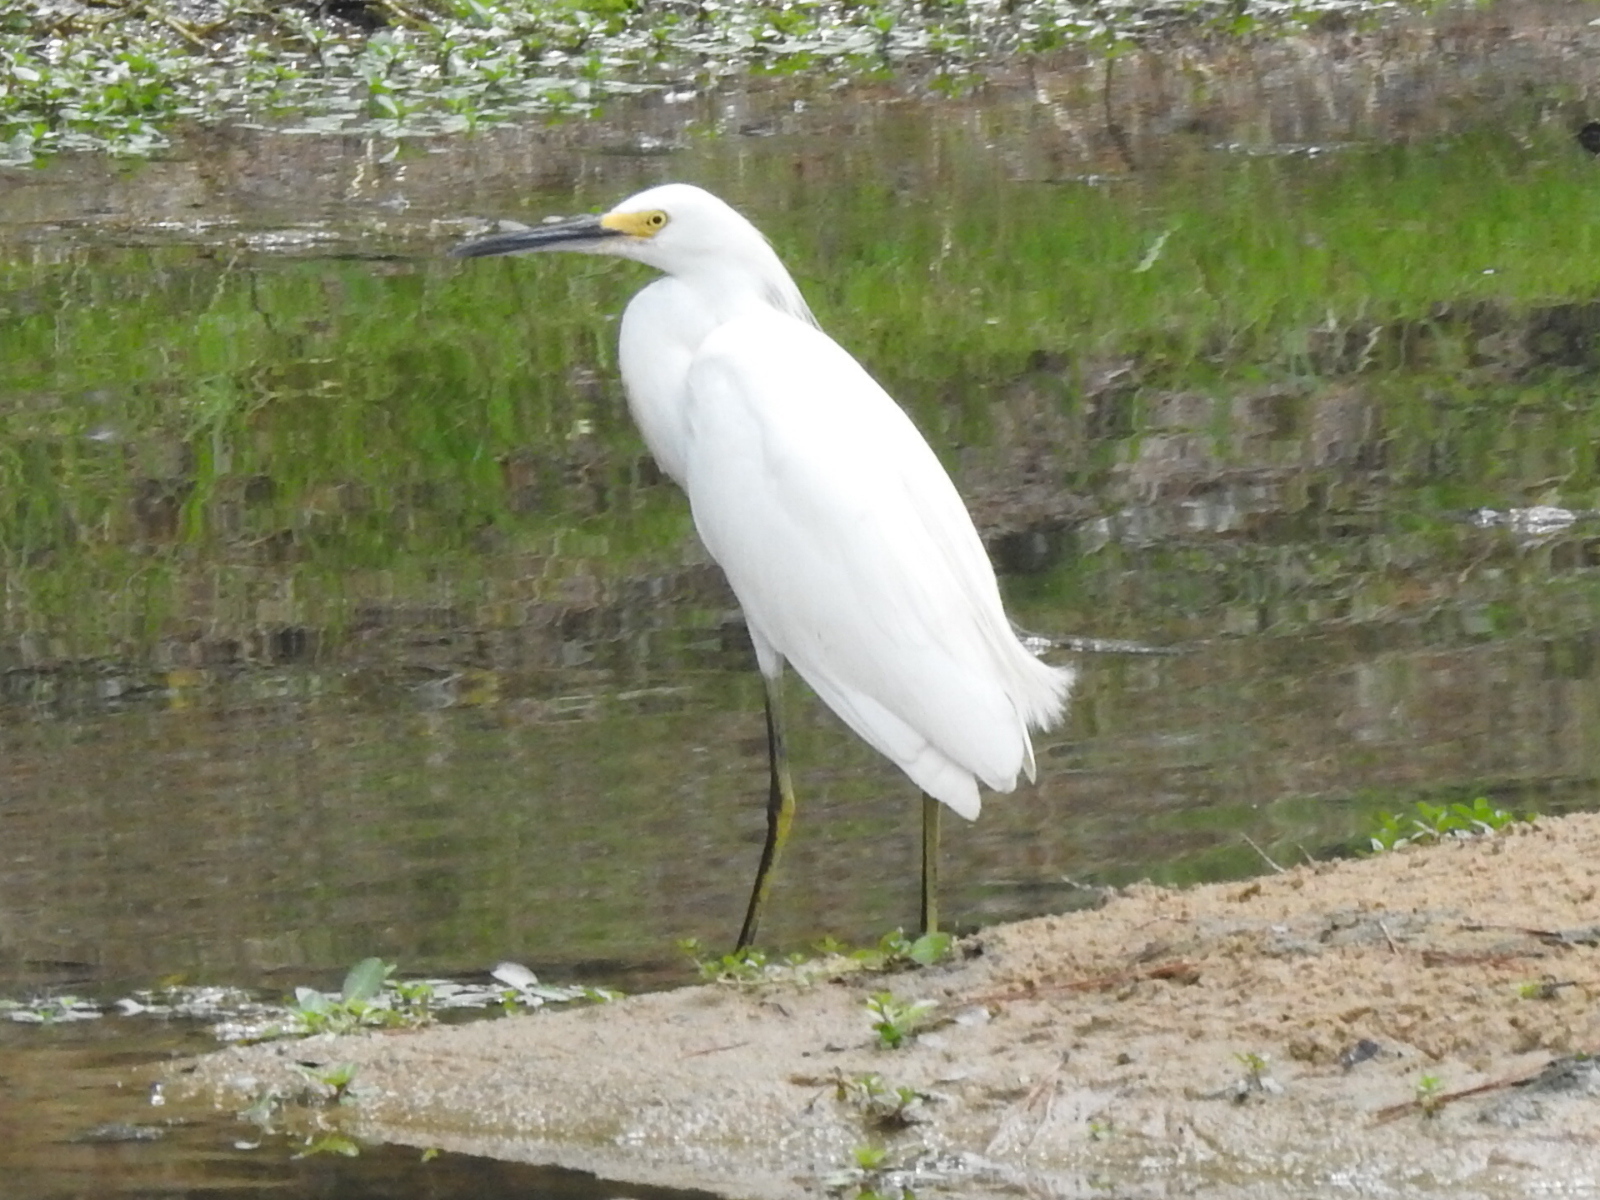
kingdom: Animalia
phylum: Chordata
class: Aves
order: Pelecaniformes
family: Ardeidae
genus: Egretta
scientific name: Egretta thula
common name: Snowy egret
